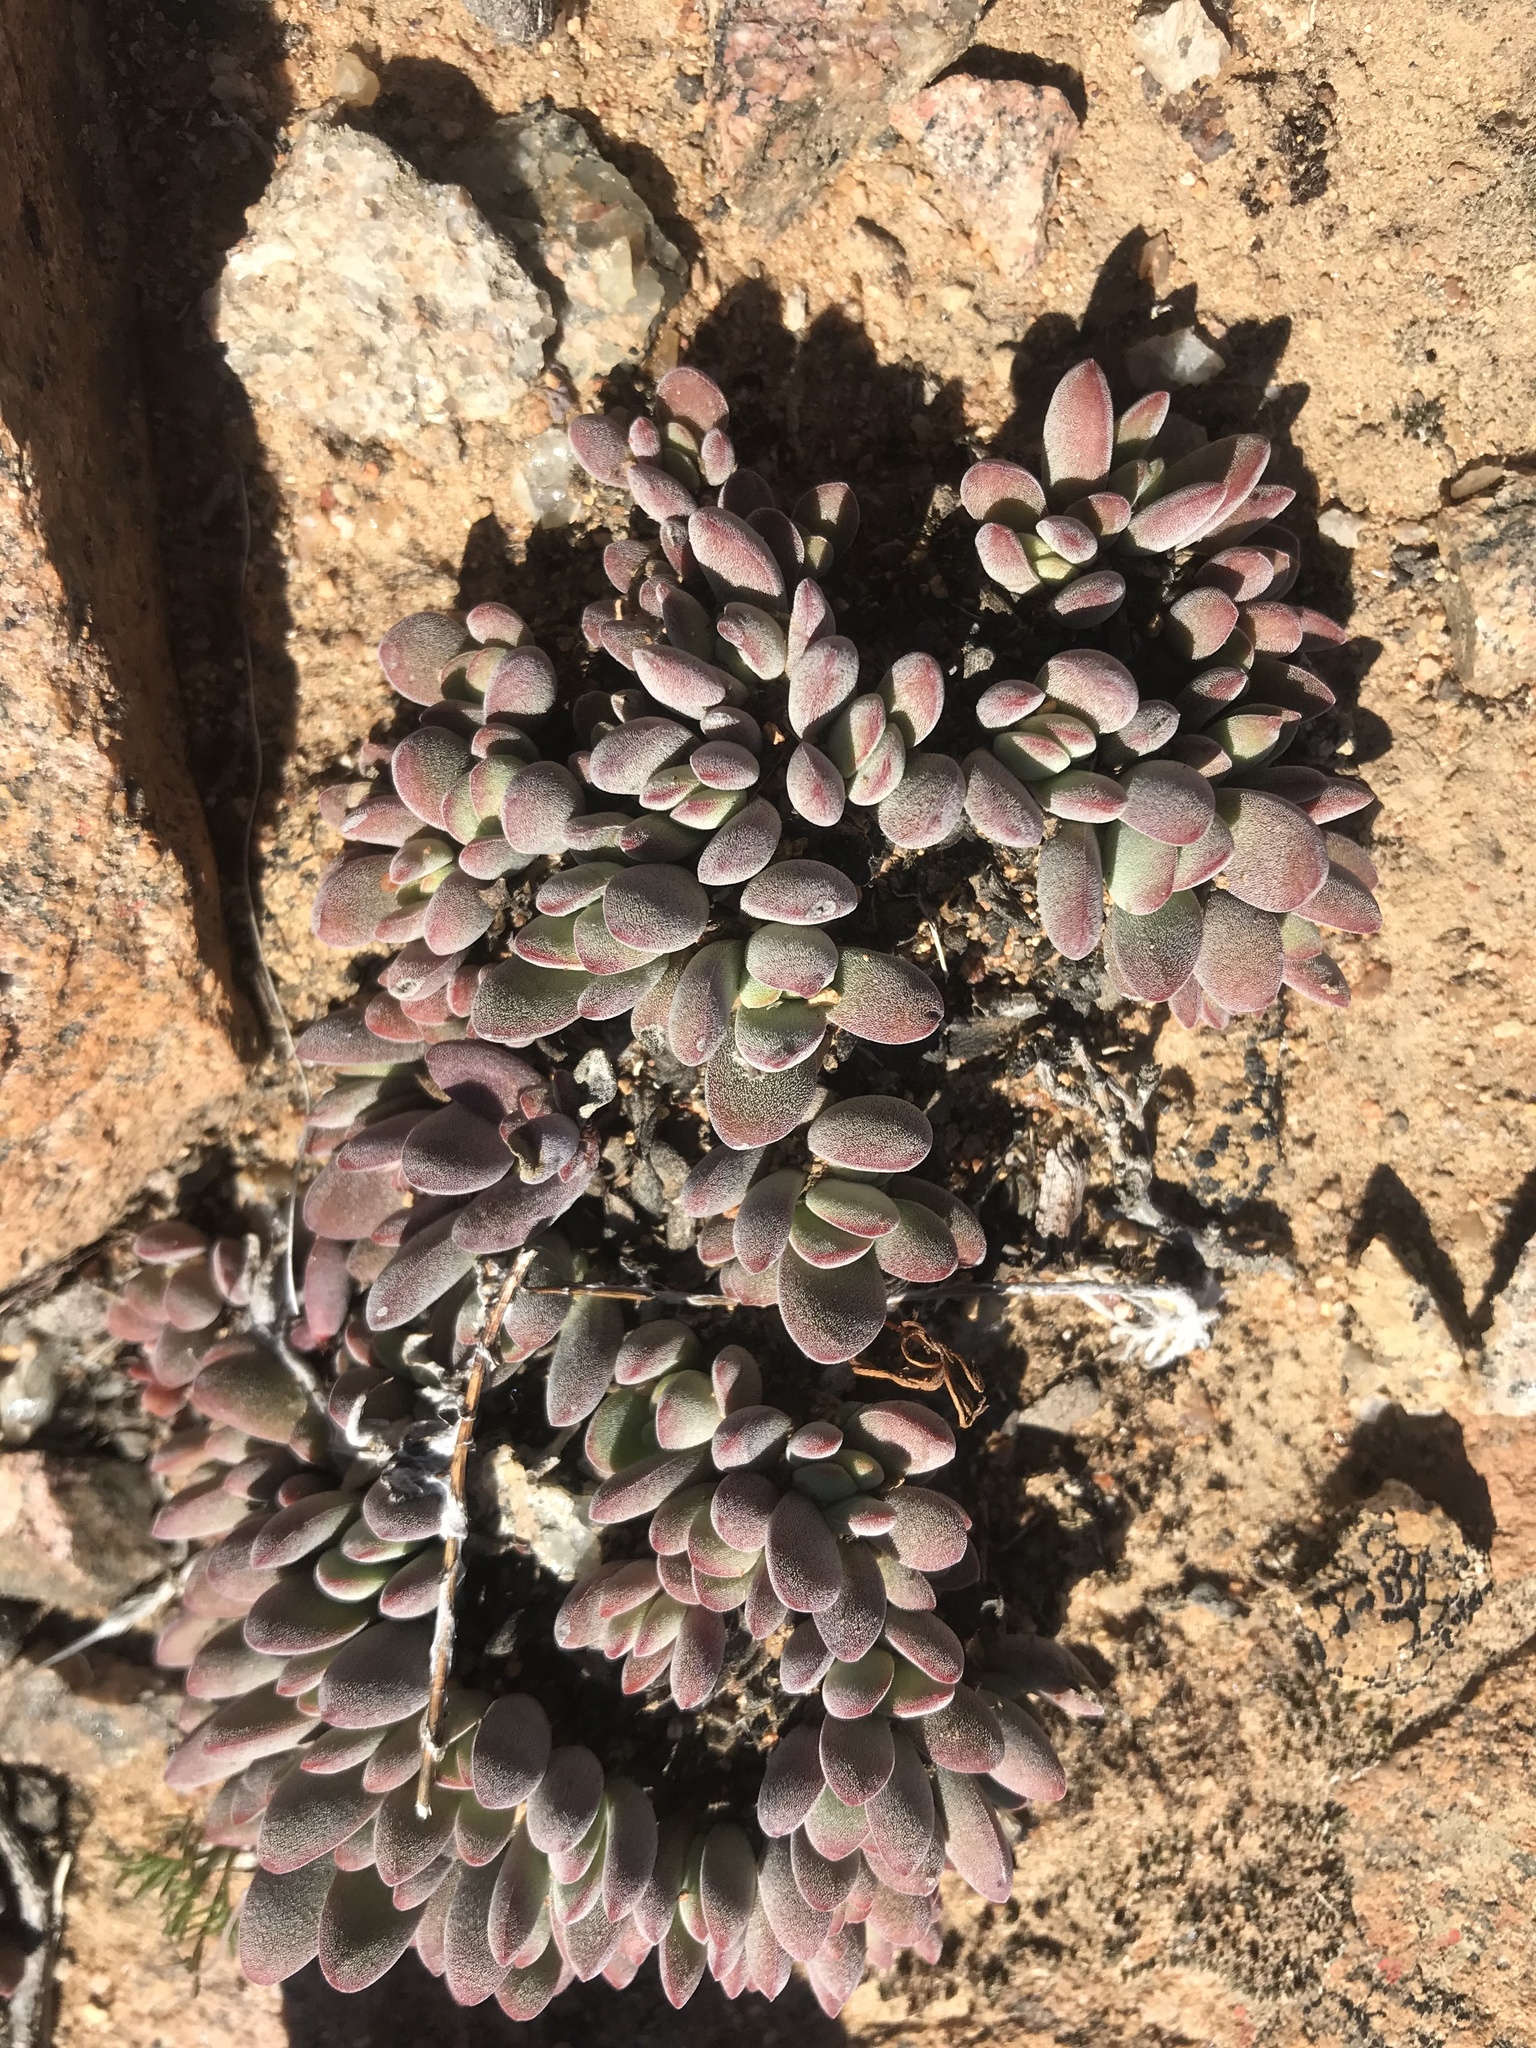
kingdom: Plantae
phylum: Tracheophyta
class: Magnoliopsida
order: Saxifragales
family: Crassulaceae
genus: Crassula
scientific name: Crassula namaquensis
